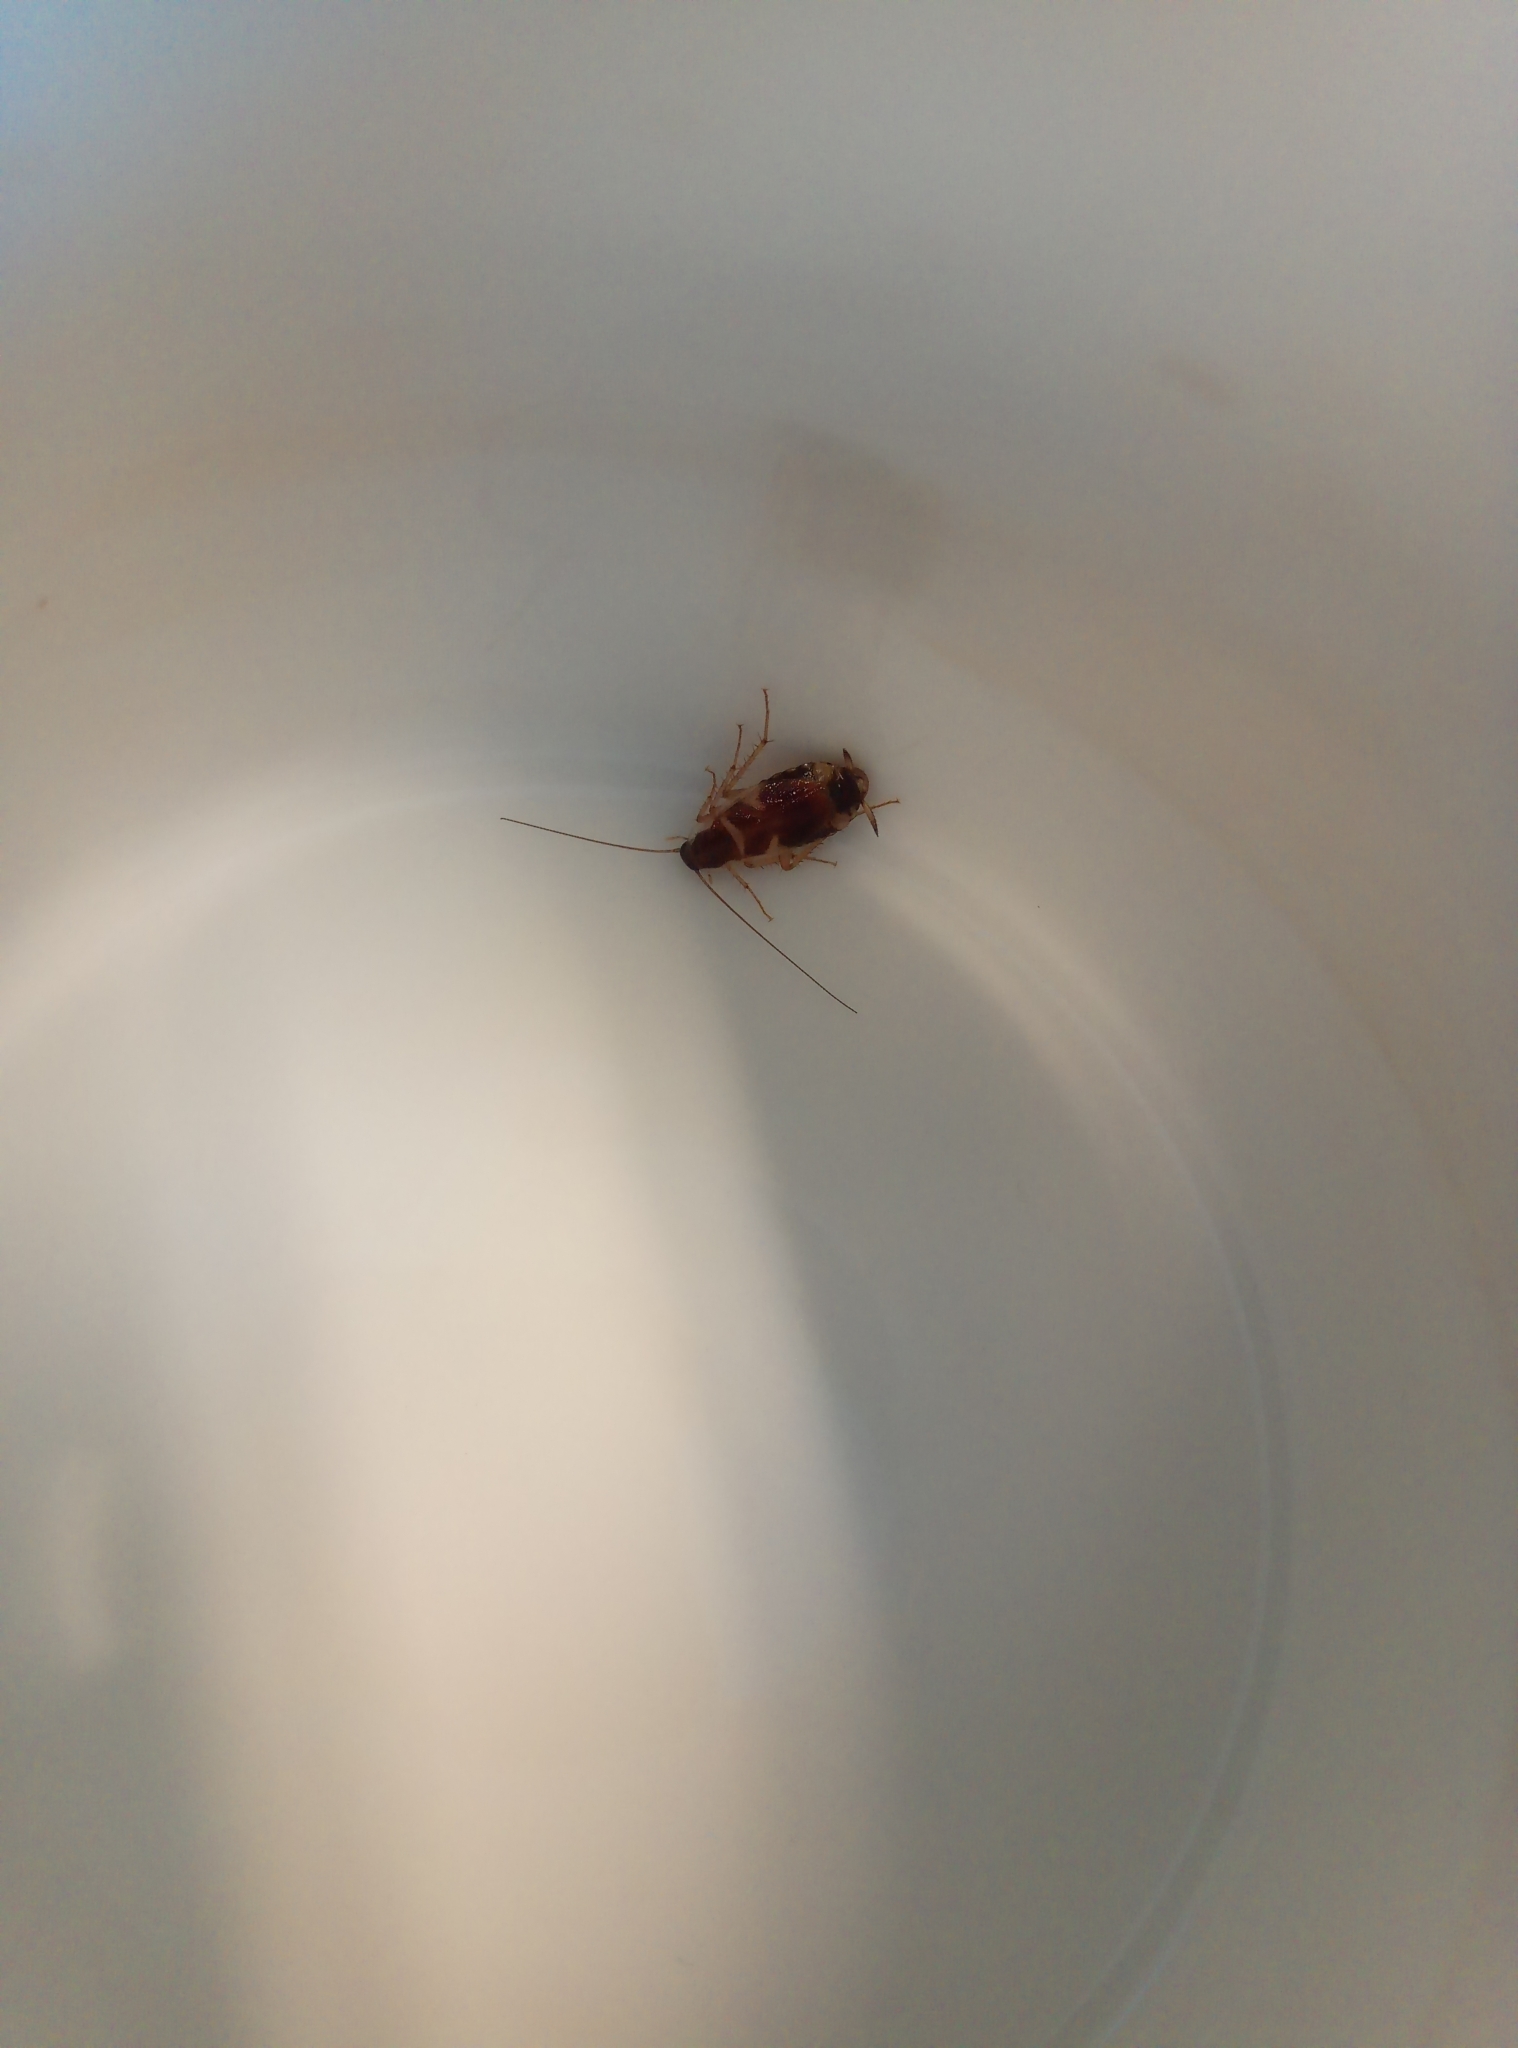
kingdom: Animalia
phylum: Arthropoda
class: Insecta
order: Blattodea
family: Ectobiidae
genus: Supella
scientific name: Supella longipalpa
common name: Brown-banded cockroach
